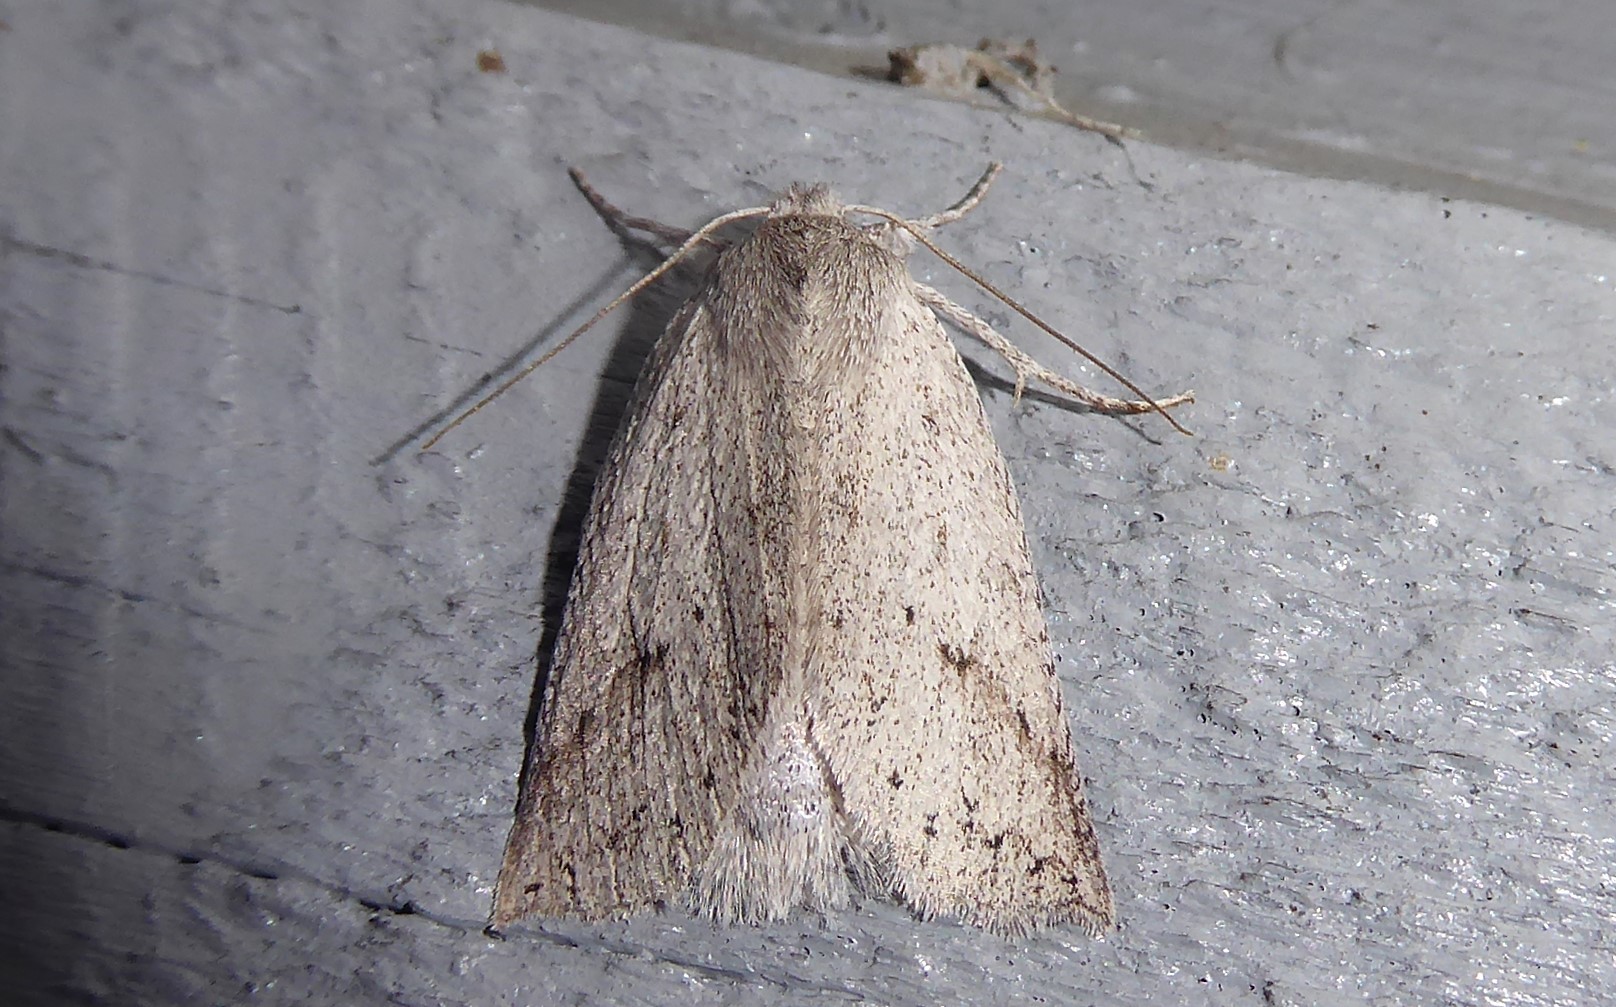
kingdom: Animalia
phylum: Arthropoda
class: Insecta
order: Lepidoptera
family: Geometridae
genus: Declana
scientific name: Declana leptomera
